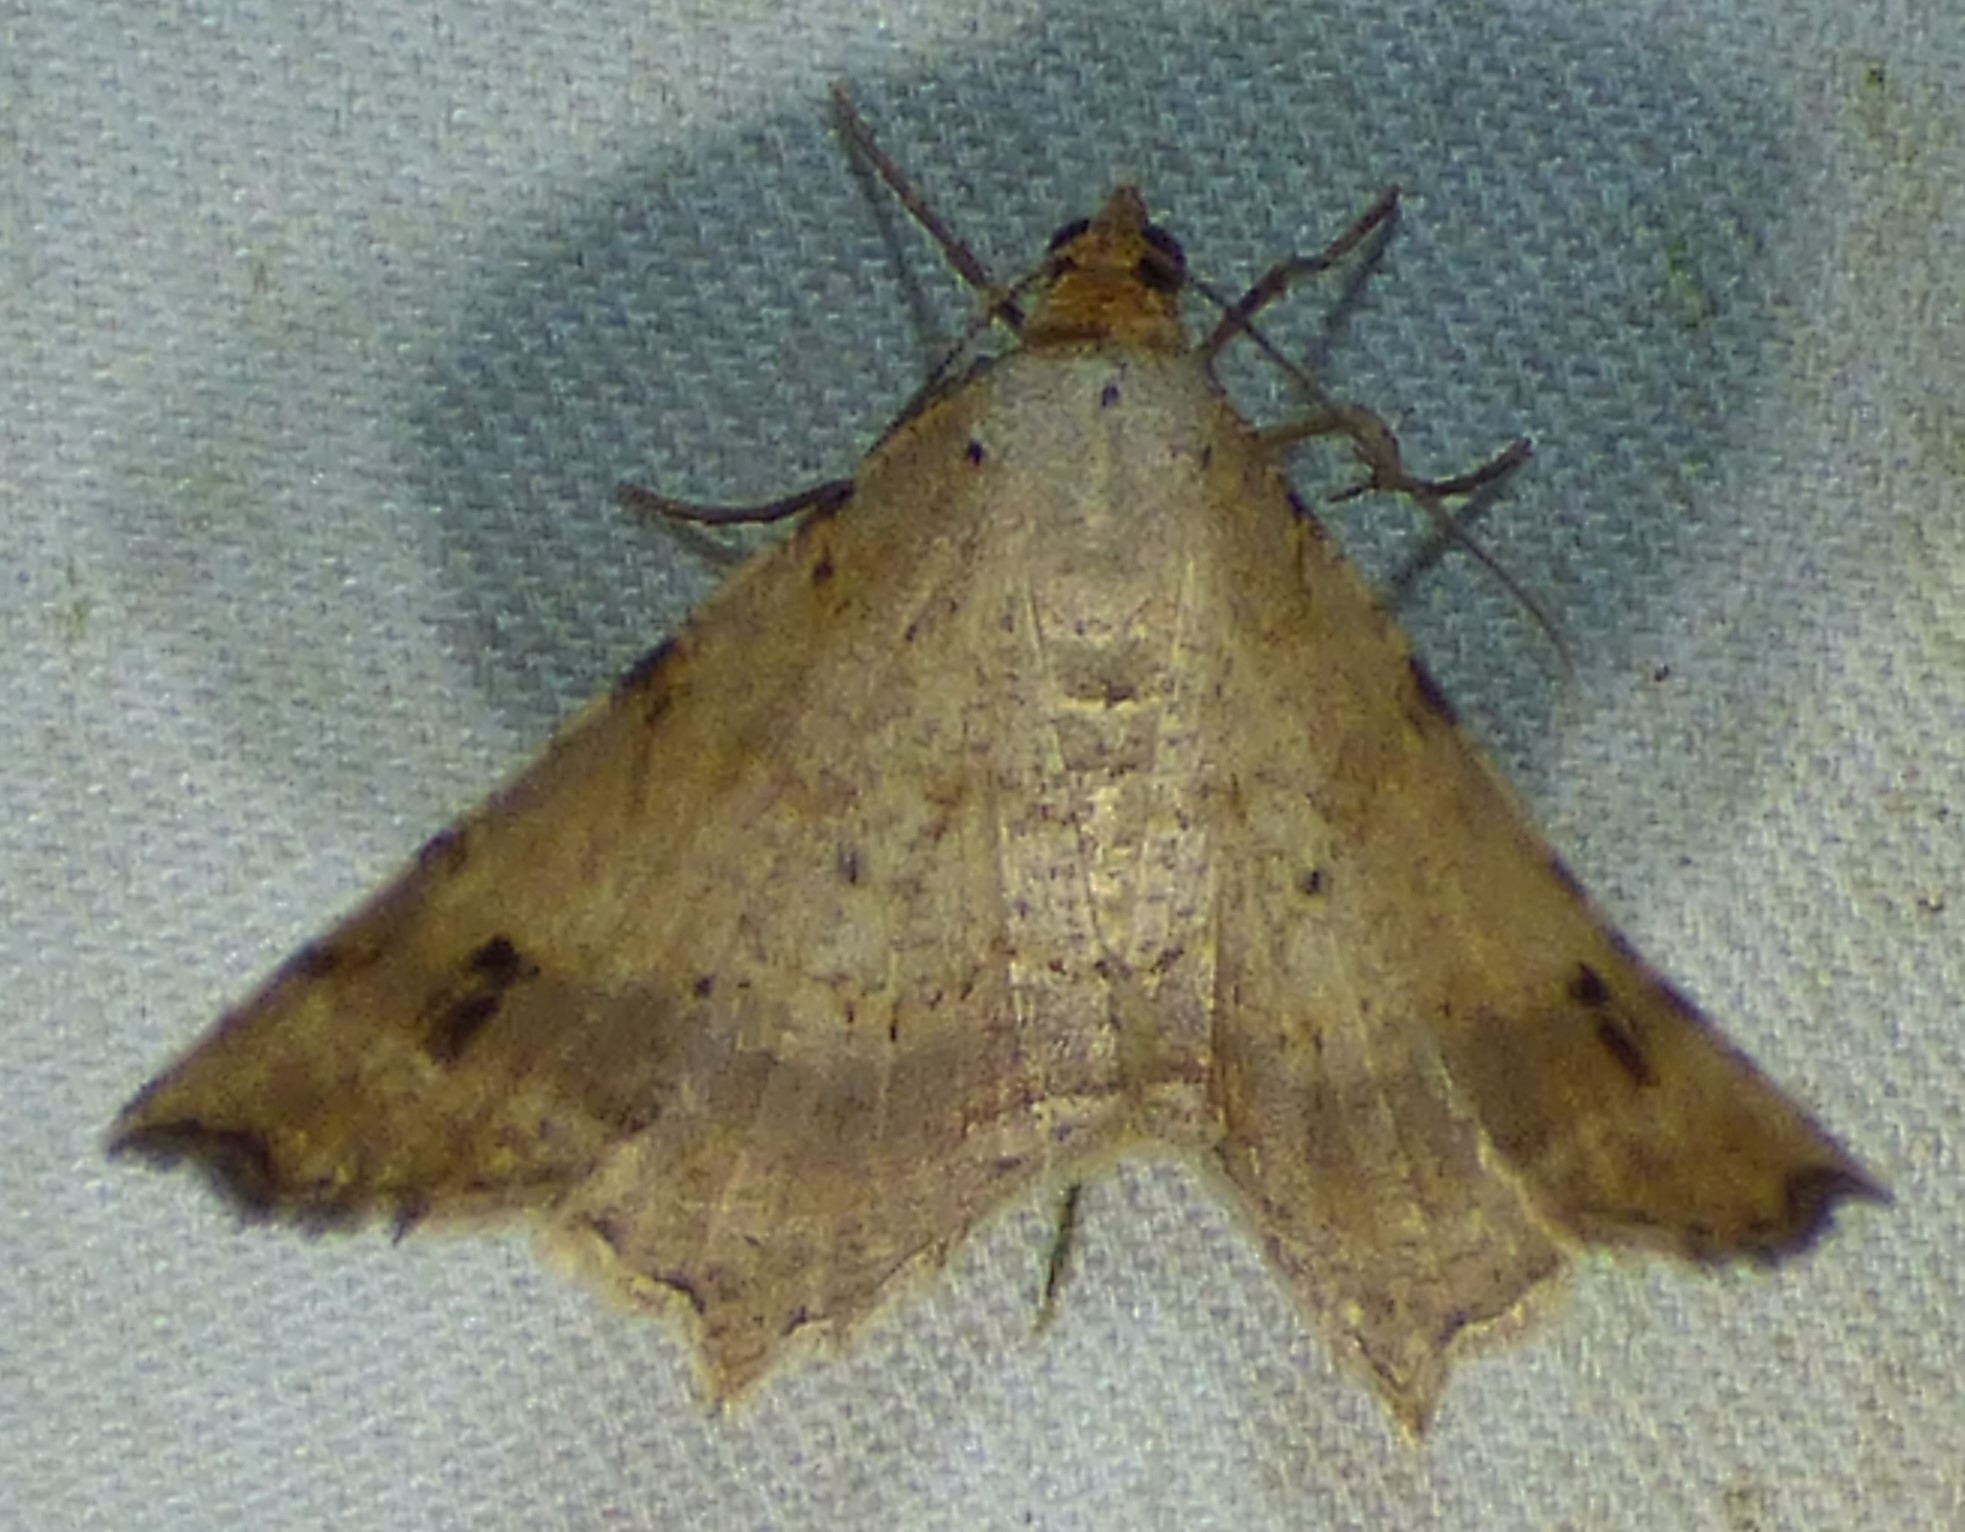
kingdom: Animalia
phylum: Arthropoda
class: Insecta
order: Lepidoptera
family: Geometridae
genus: Macaria
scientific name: Macaria aemulataria
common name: Common angle
